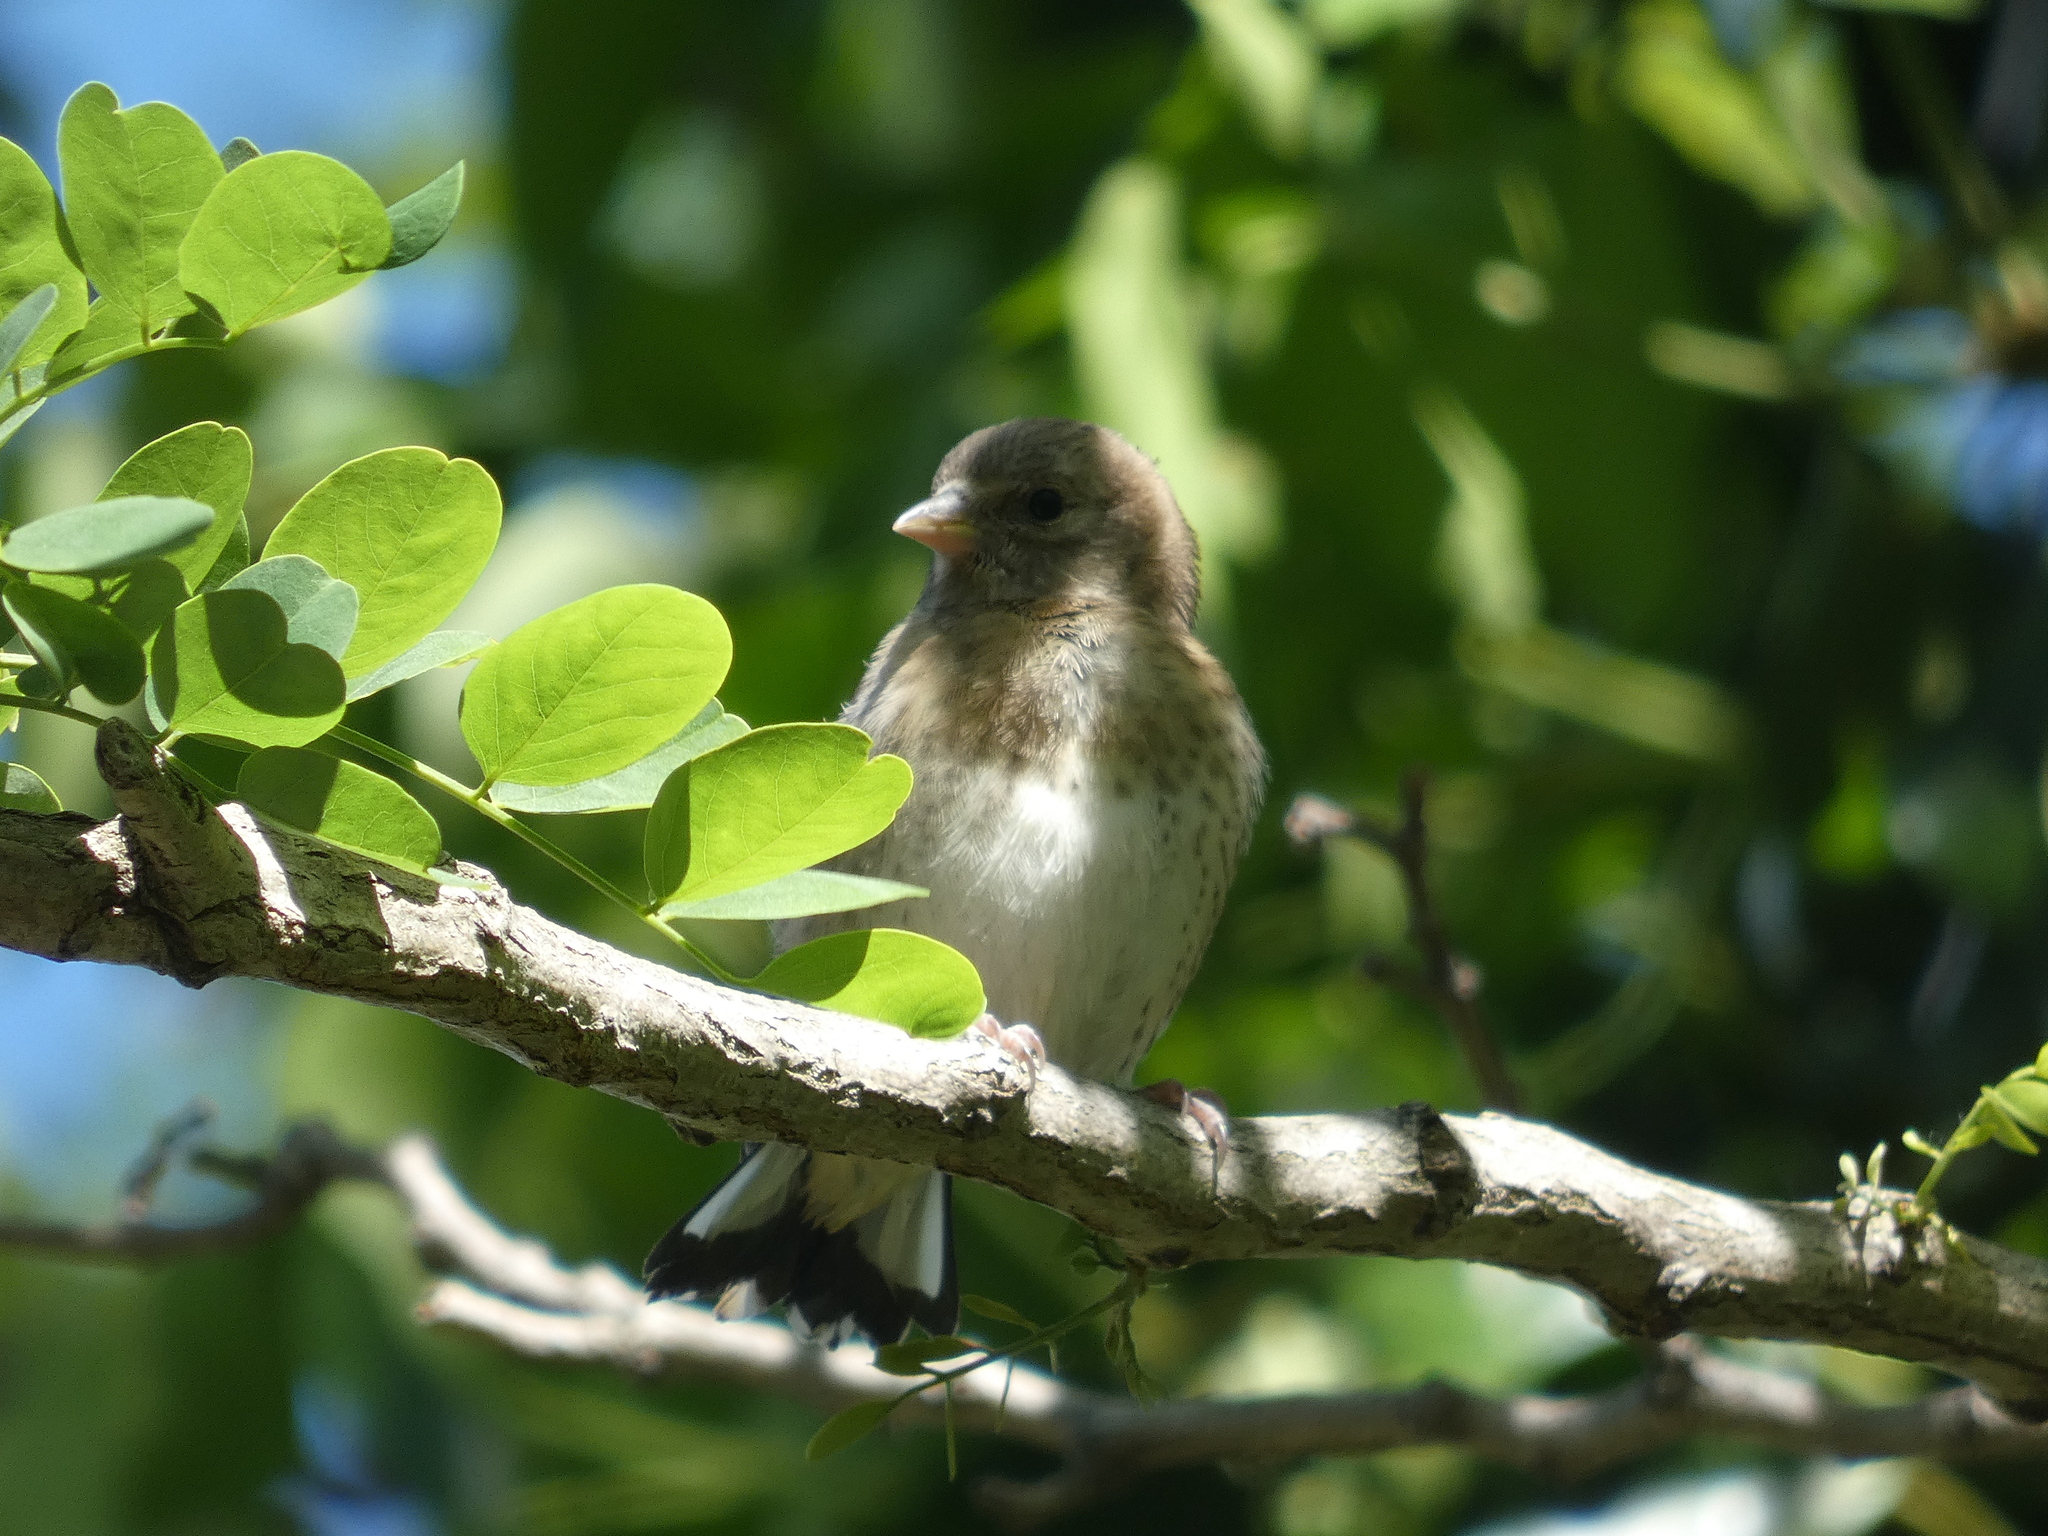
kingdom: Animalia
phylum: Chordata
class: Aves
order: Passeriformes
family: Fringillidae
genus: Fringilla
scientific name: Fringilla coelebs
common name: Common chaffinch
